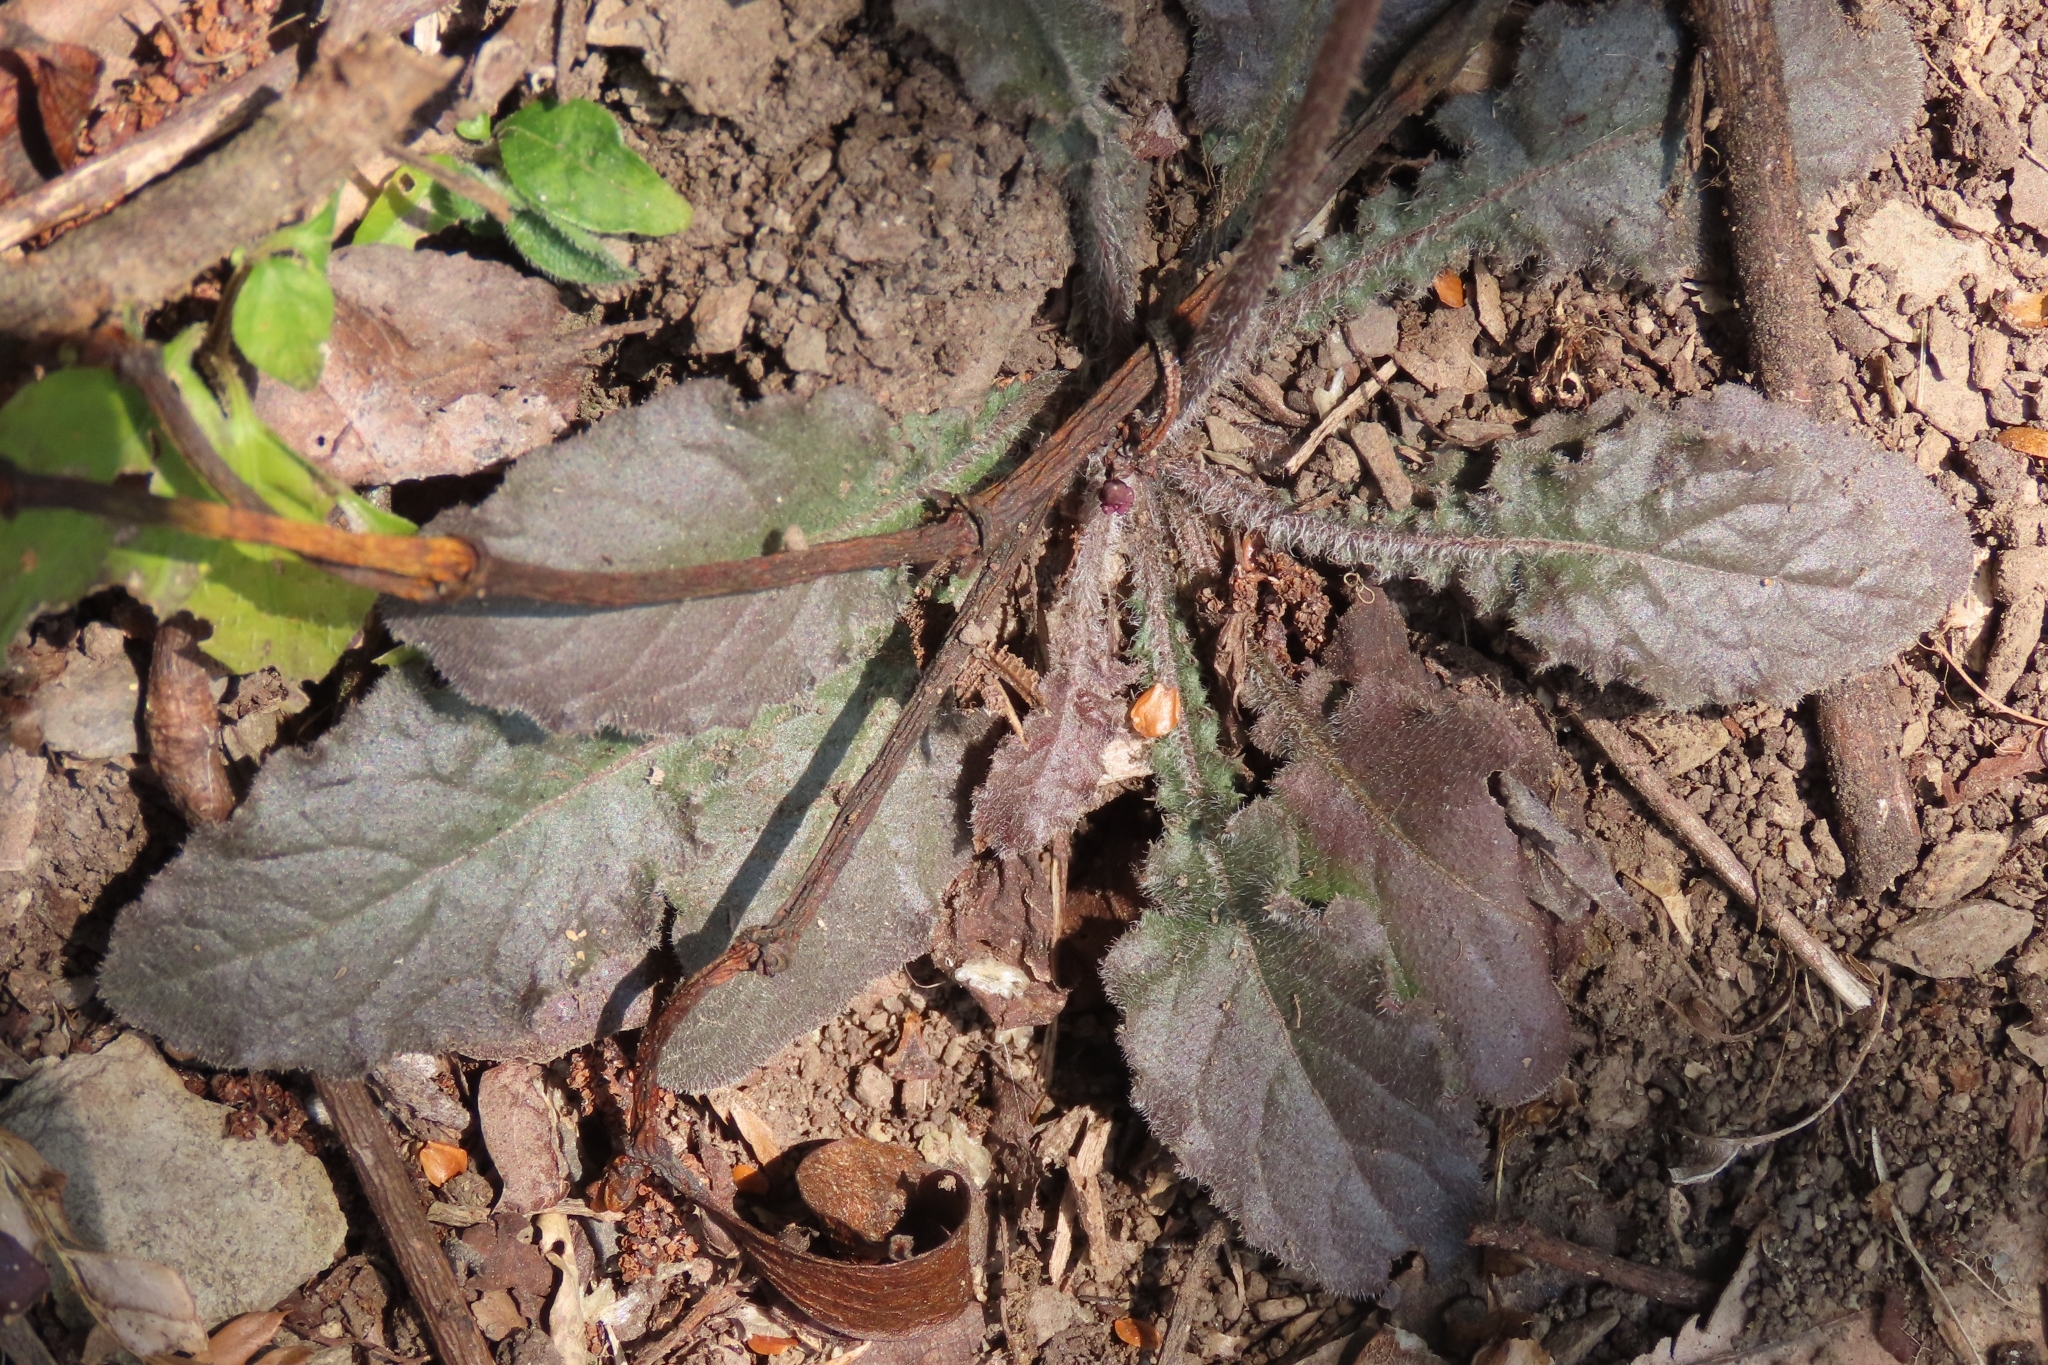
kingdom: Plantae
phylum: Tracheophyta
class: Magnoliopsida
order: Asterales
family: Asteraceae
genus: Youngia
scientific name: Youngia japonica
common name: Oriental false hawksbeard
